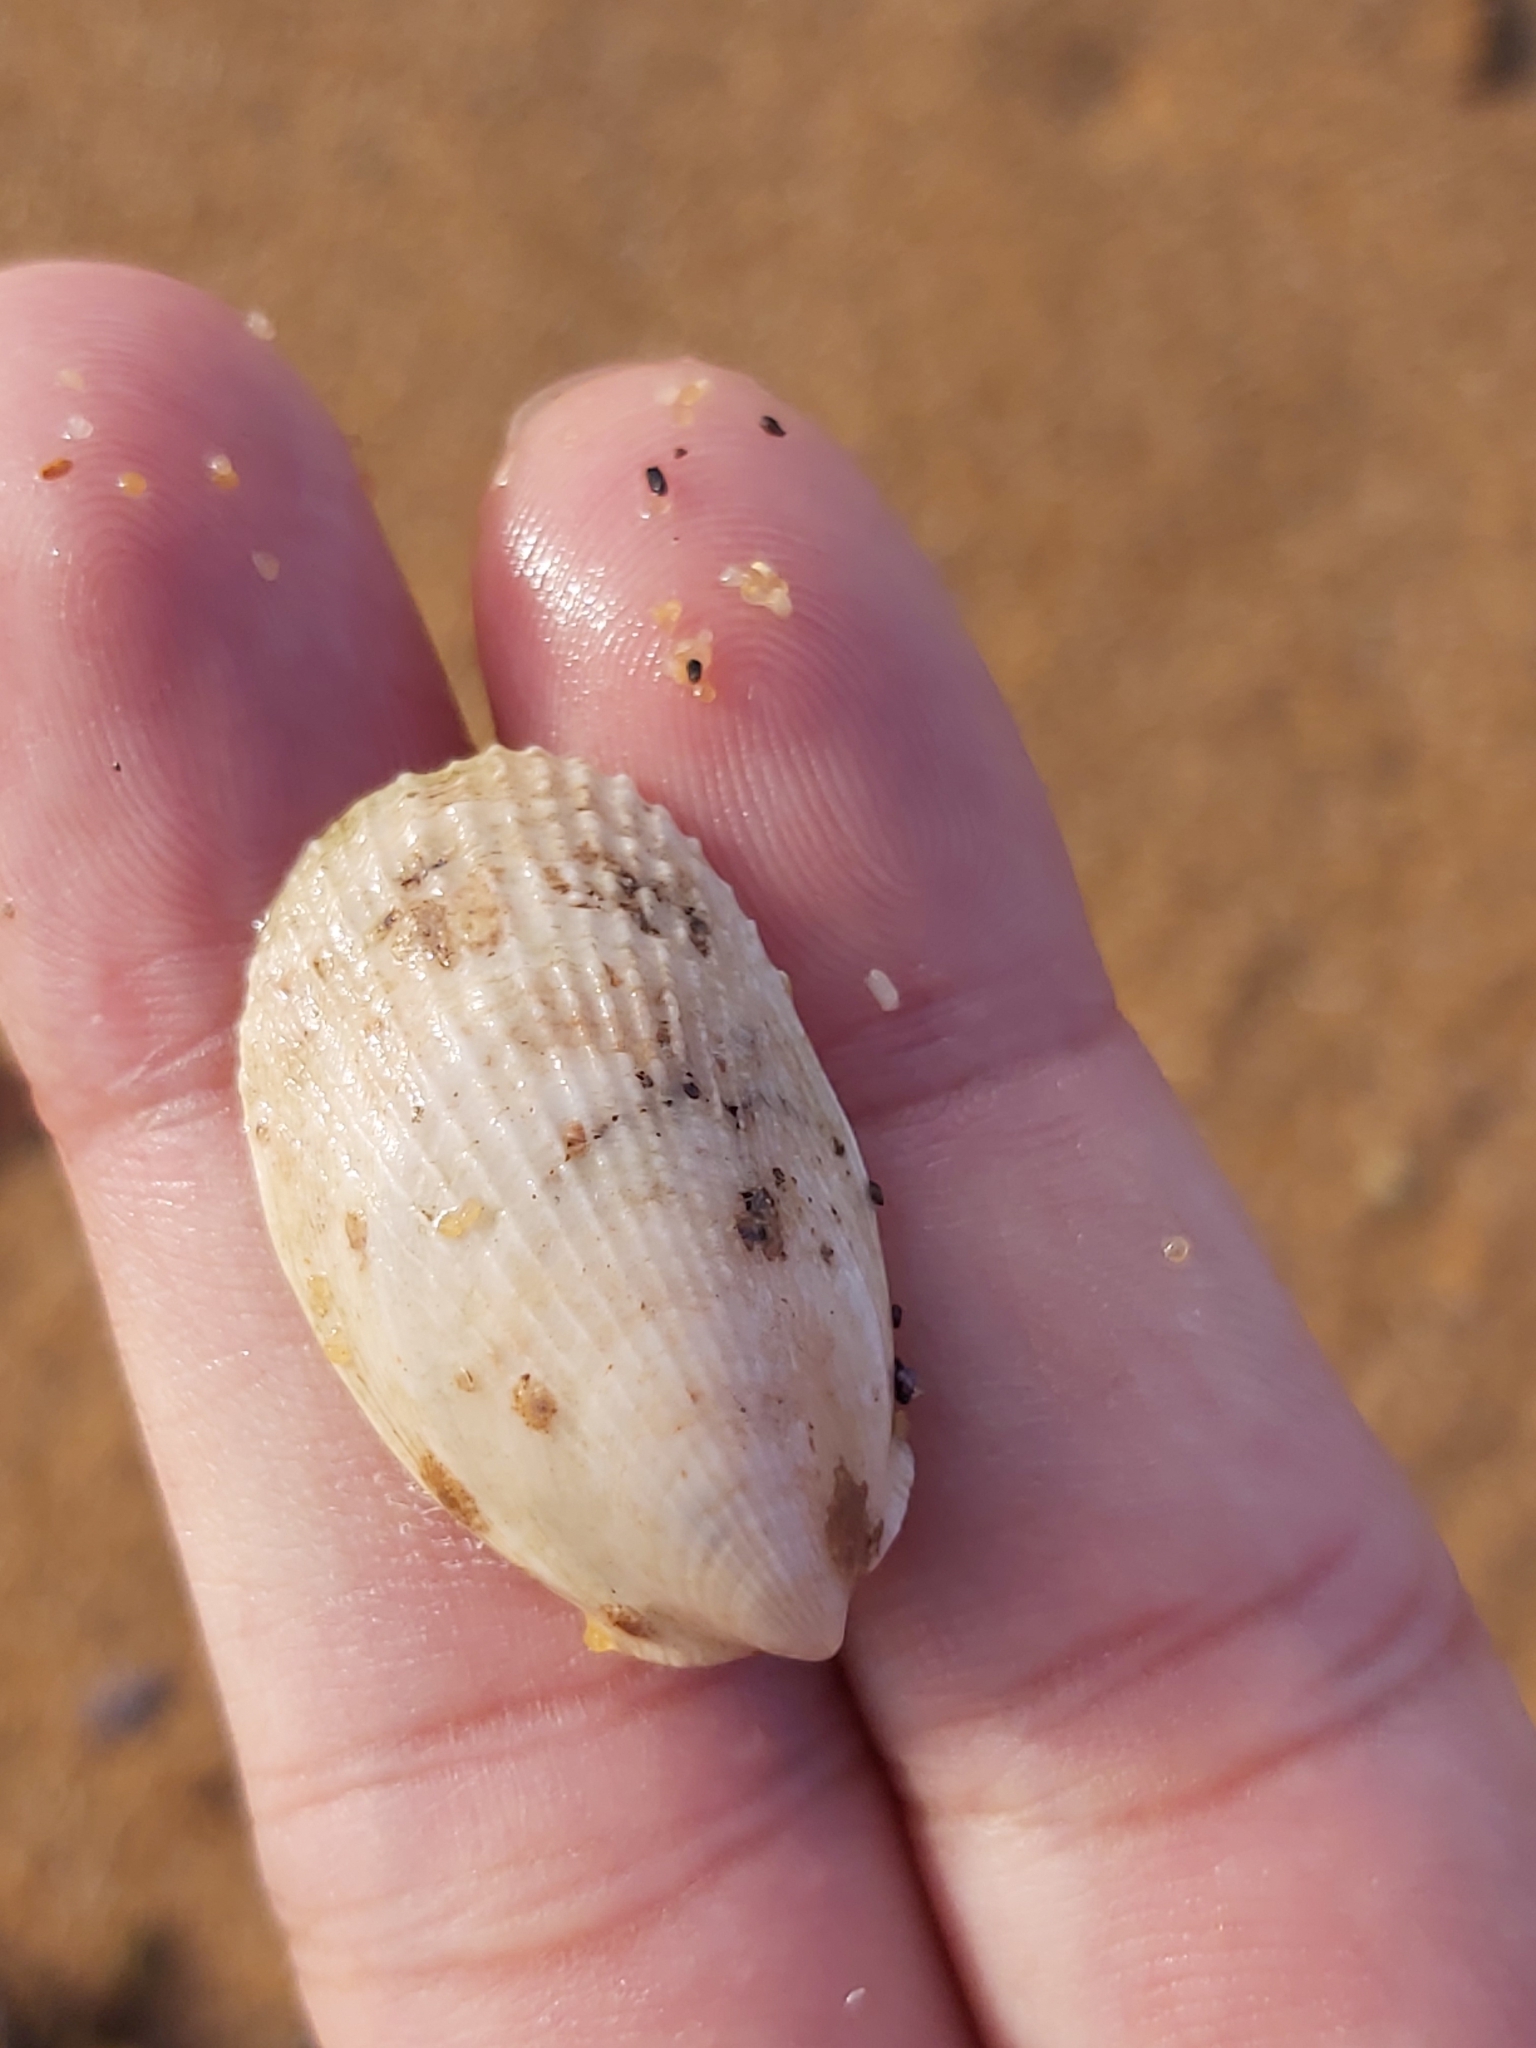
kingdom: Animalia
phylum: Mollusca
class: Bivalvia
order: Limida
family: Limidae
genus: Limatula
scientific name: Limatula strangei
